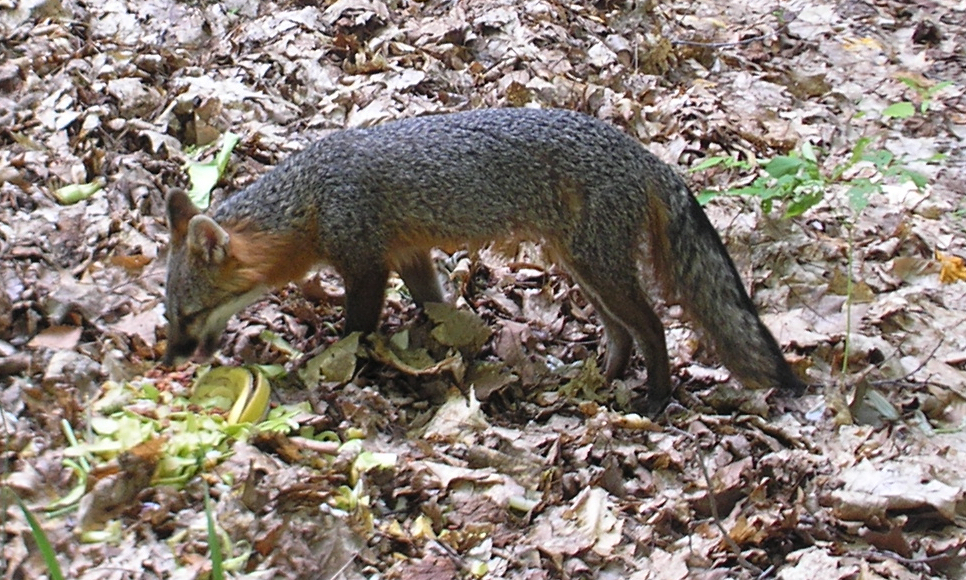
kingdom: Animalia
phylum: Chordata
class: Mammalia
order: Carnivora
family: Canidae
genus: Urocyon
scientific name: Urocyon cinereoargenteus
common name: Gray fox
